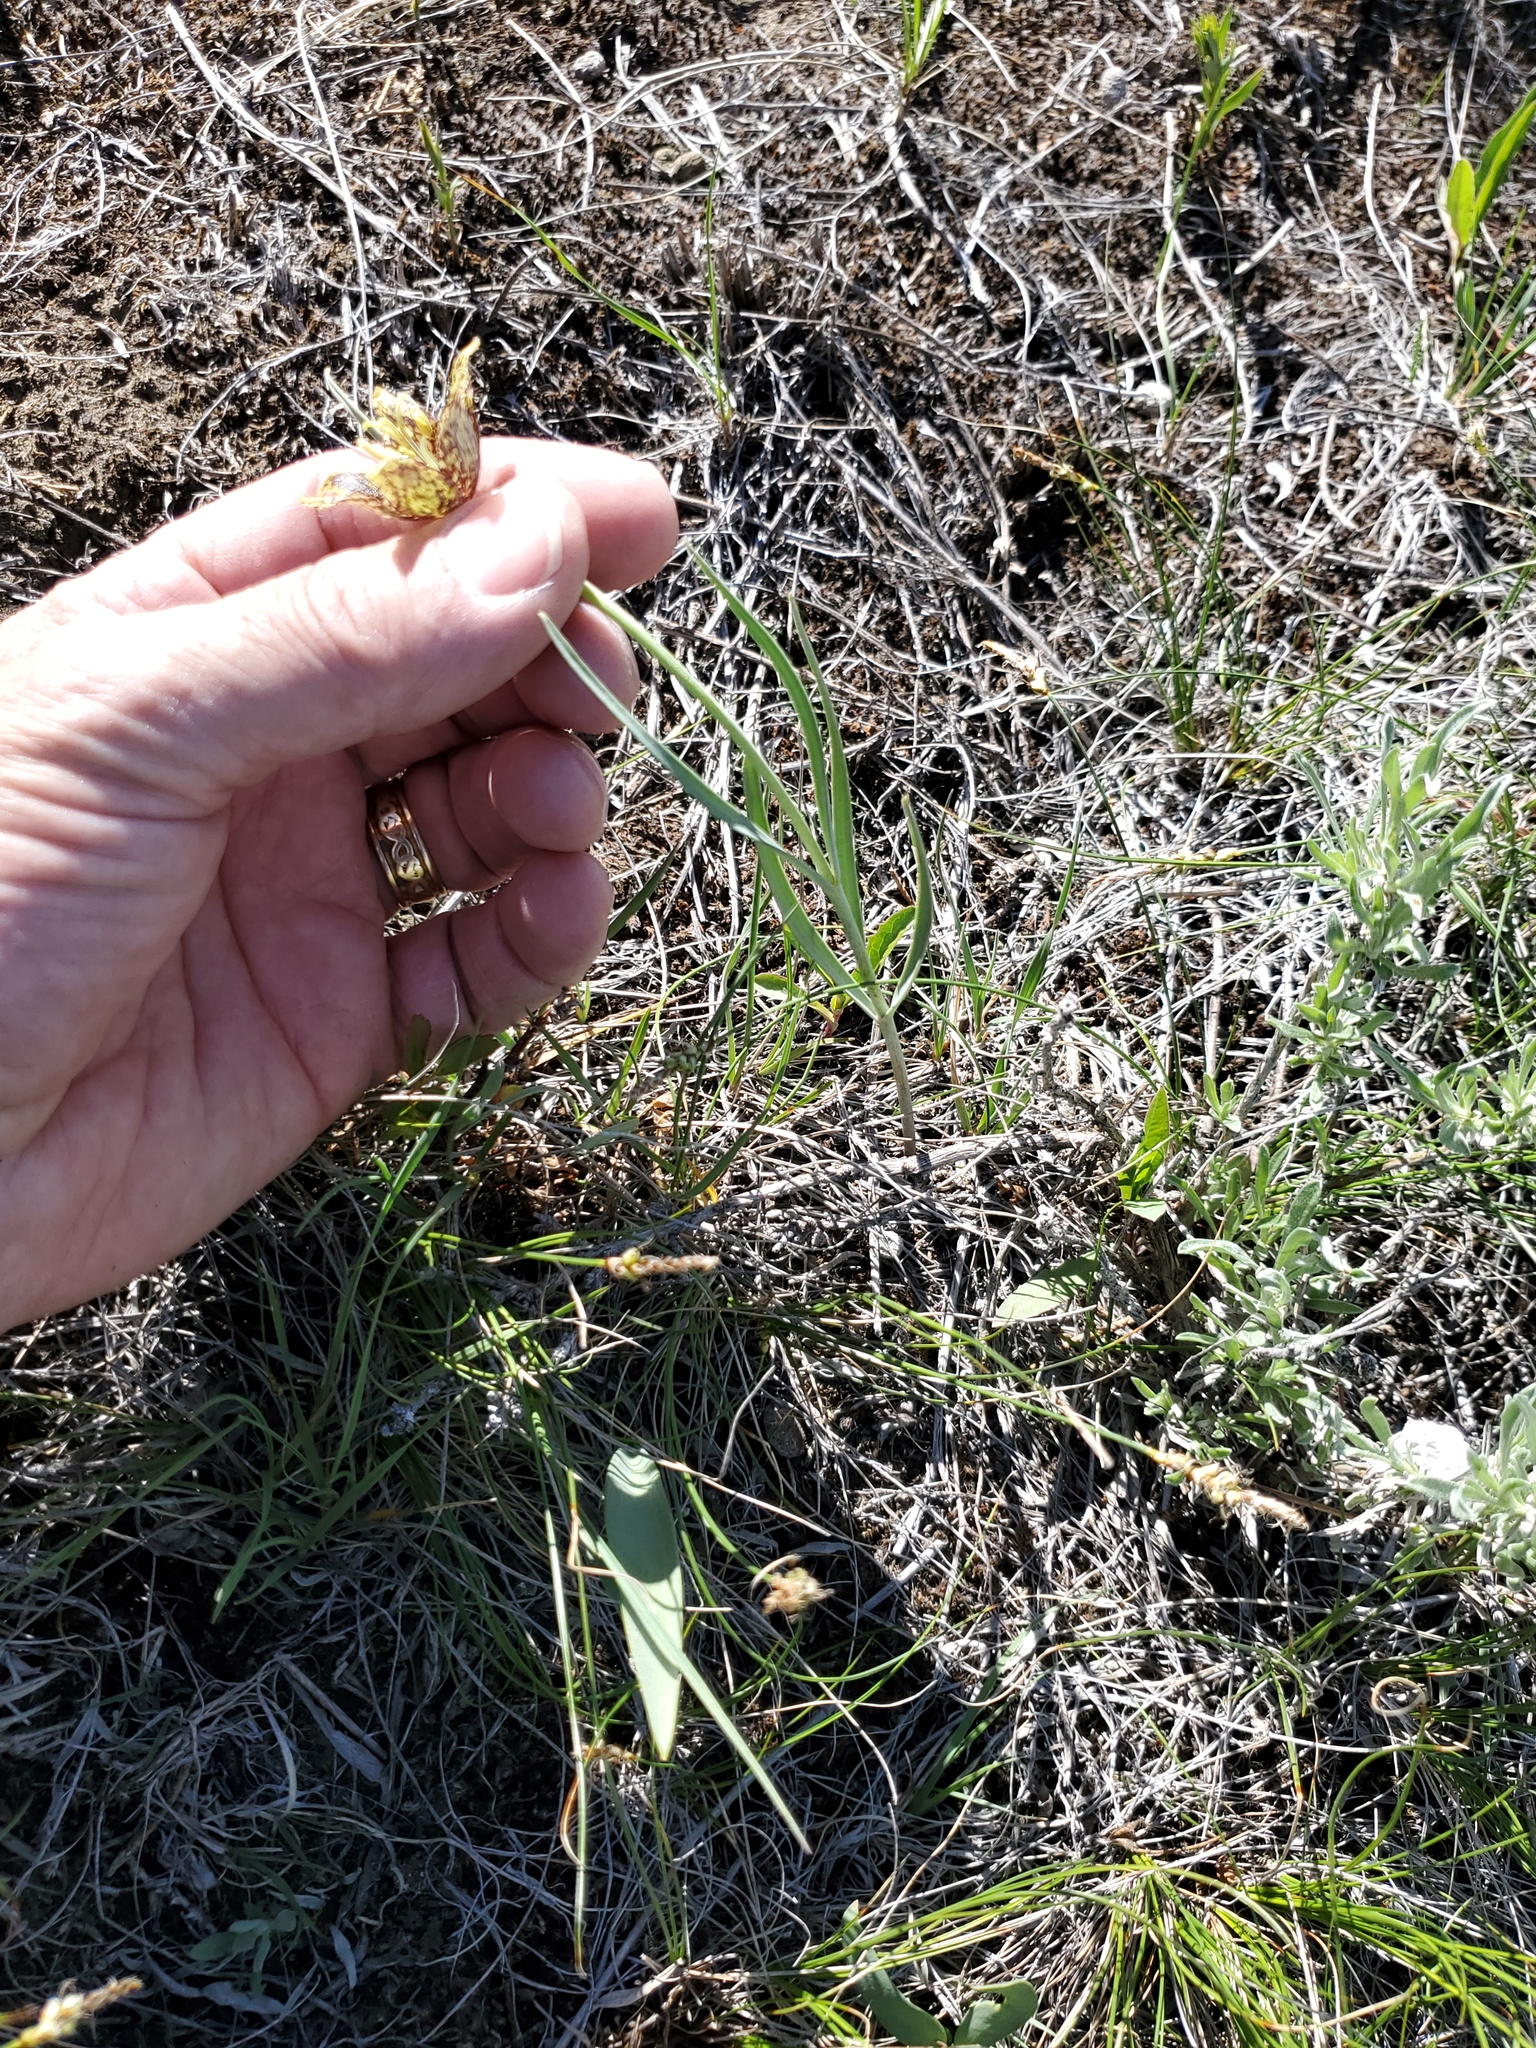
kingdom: Plantae
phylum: Tracheophyta
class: Liliopsida
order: Liliales
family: Liliaceae
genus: Fritillaria
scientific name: Fritillaria atropurpurea
